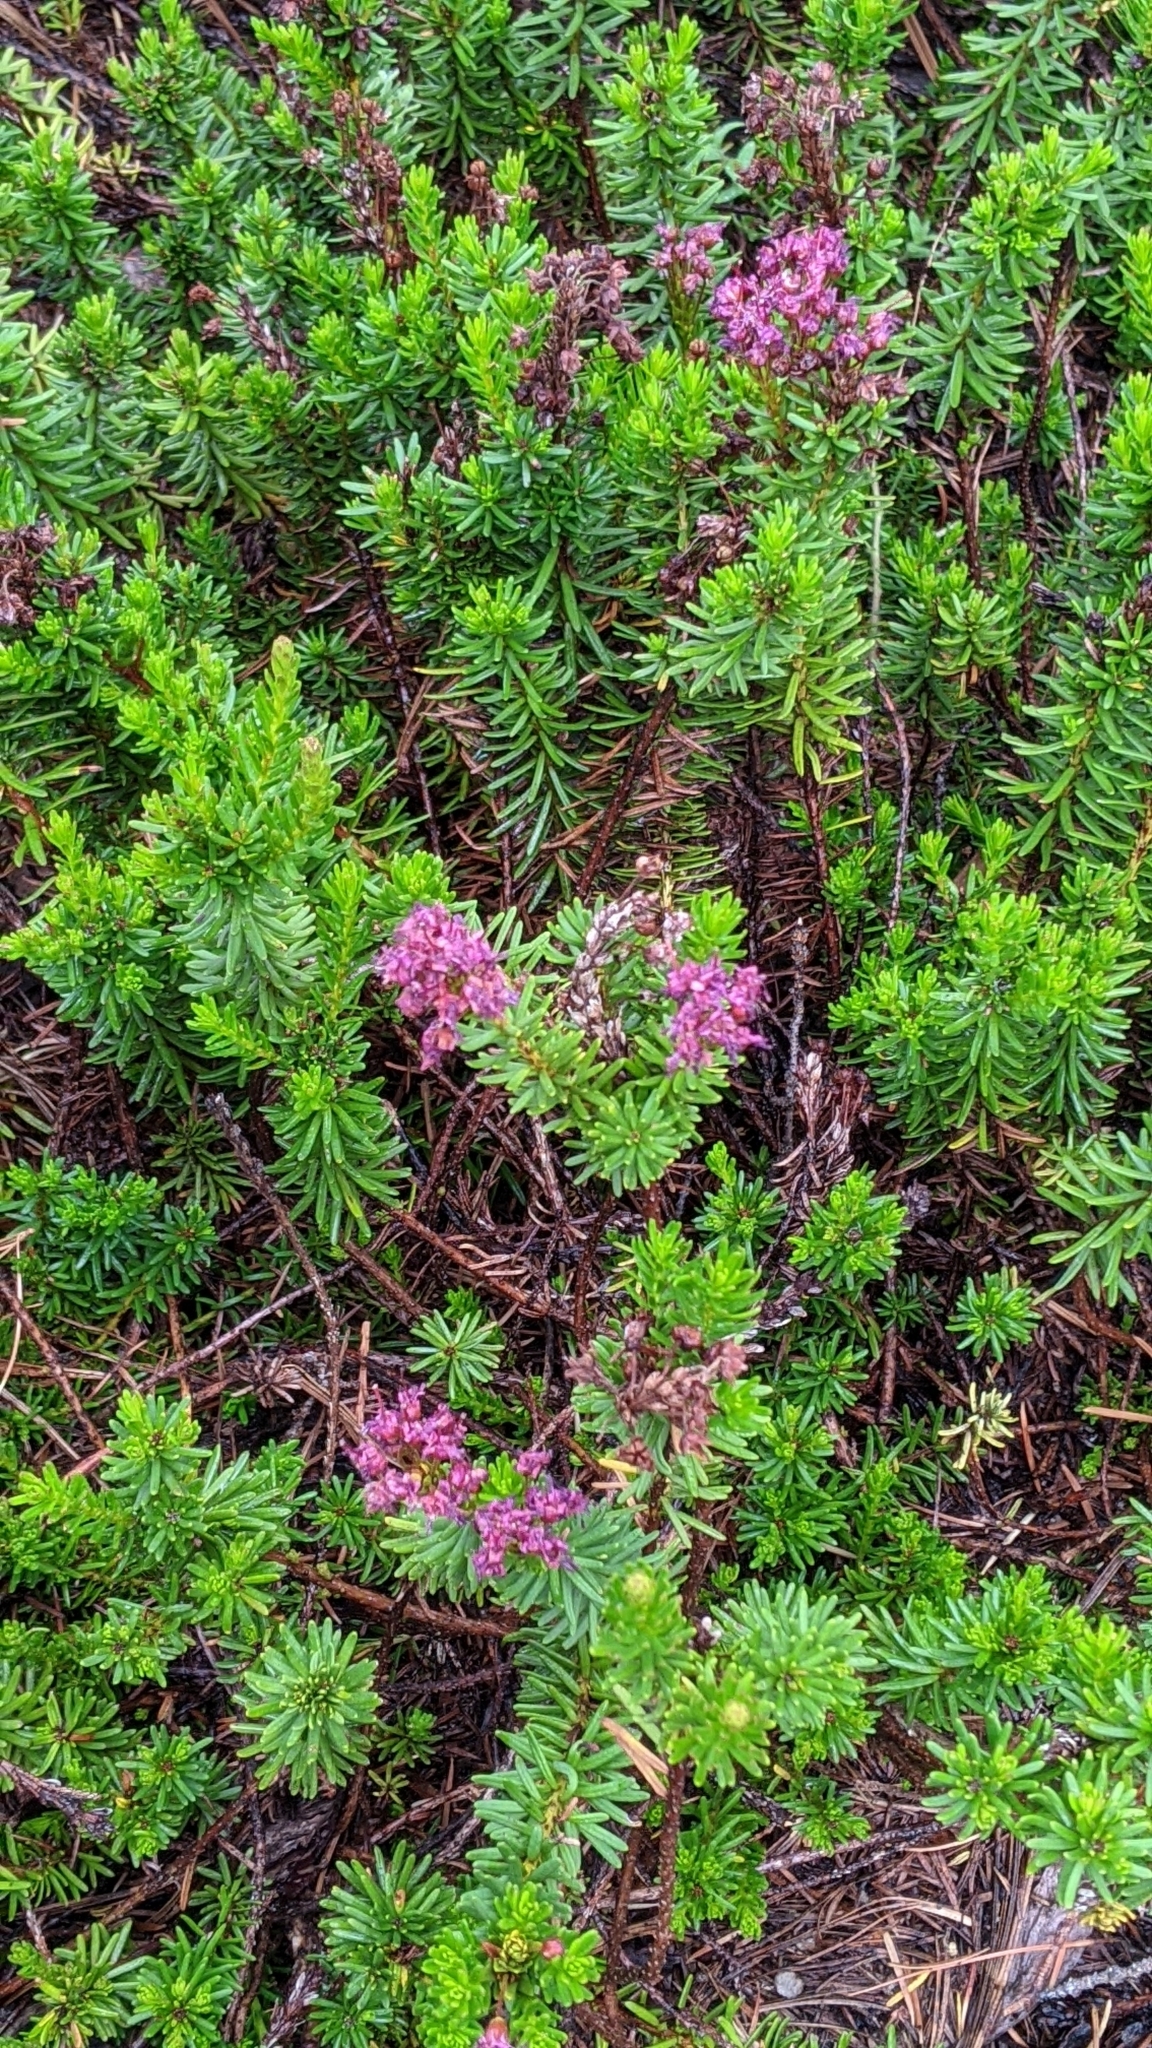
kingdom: Plantae
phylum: Tracheophyta
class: Magnoliopsida
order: Ericales
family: Ericaceae
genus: Phyllodoce
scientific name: Phyllodoce breweri
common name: Brewer's mountain-heather
